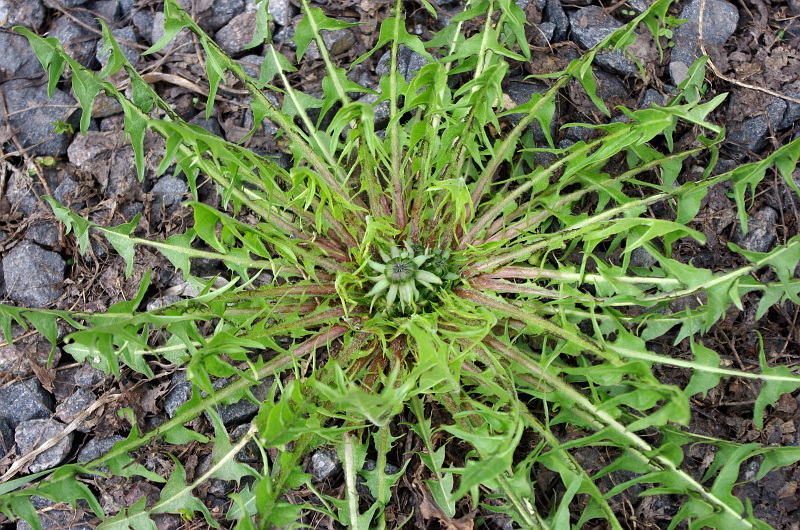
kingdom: Plantae
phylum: Tracheophyta
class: Magnoliopsida
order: Asterales
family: Asteraceae
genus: Taraxacum
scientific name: Taraxacum officinale
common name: Common dandelion
